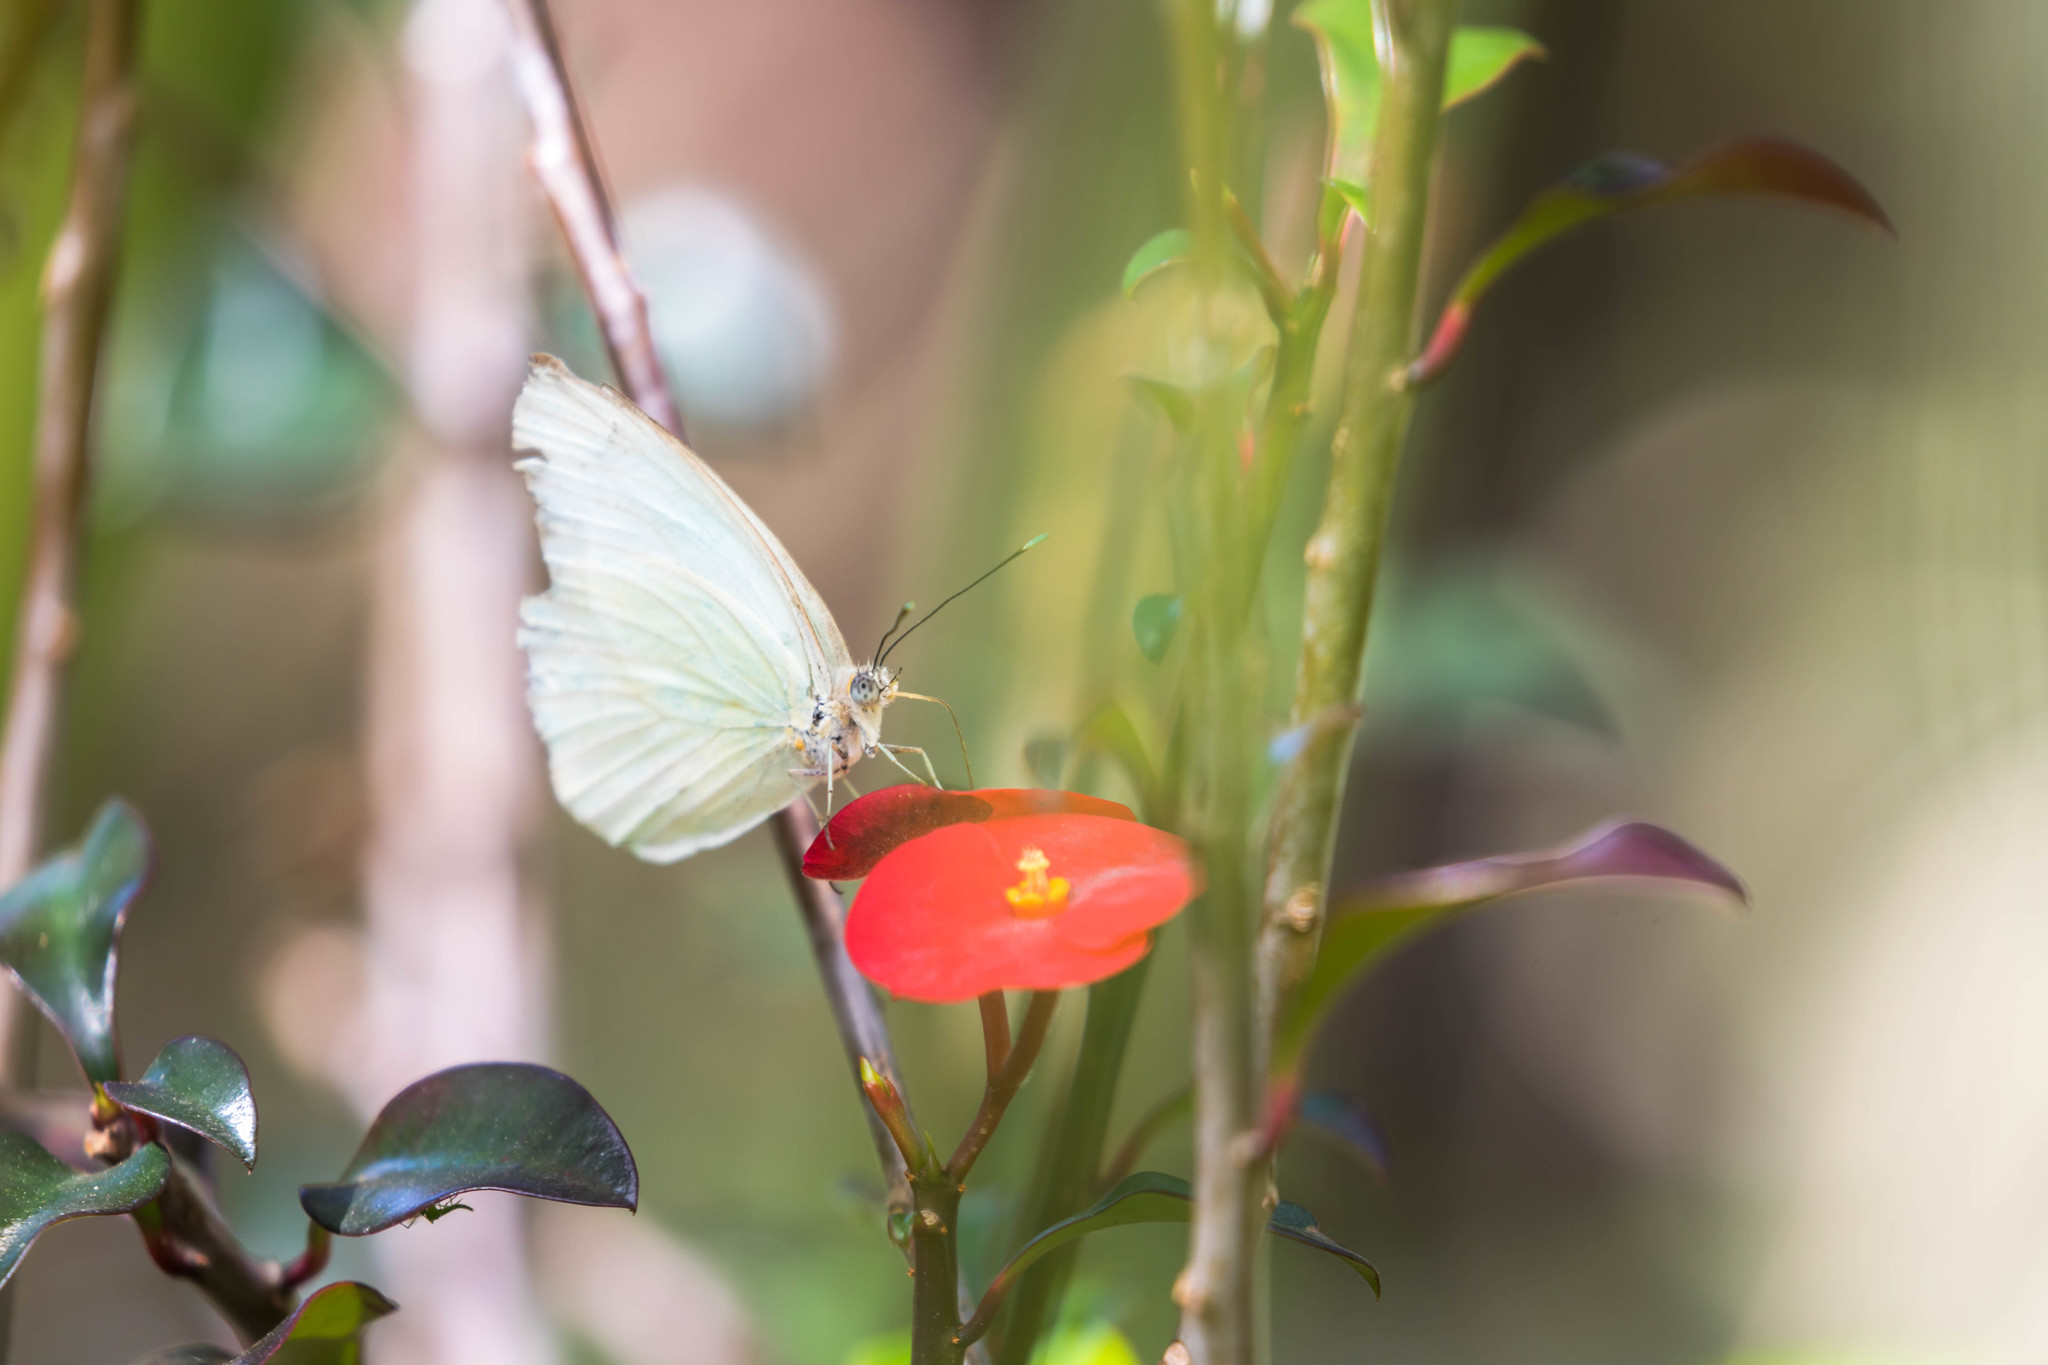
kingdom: Animalia
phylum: Arthropoda
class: Insecta
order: Lepidoptera
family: Pieridae
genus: Ascia
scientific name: Ascia monuste
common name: Great southern white
